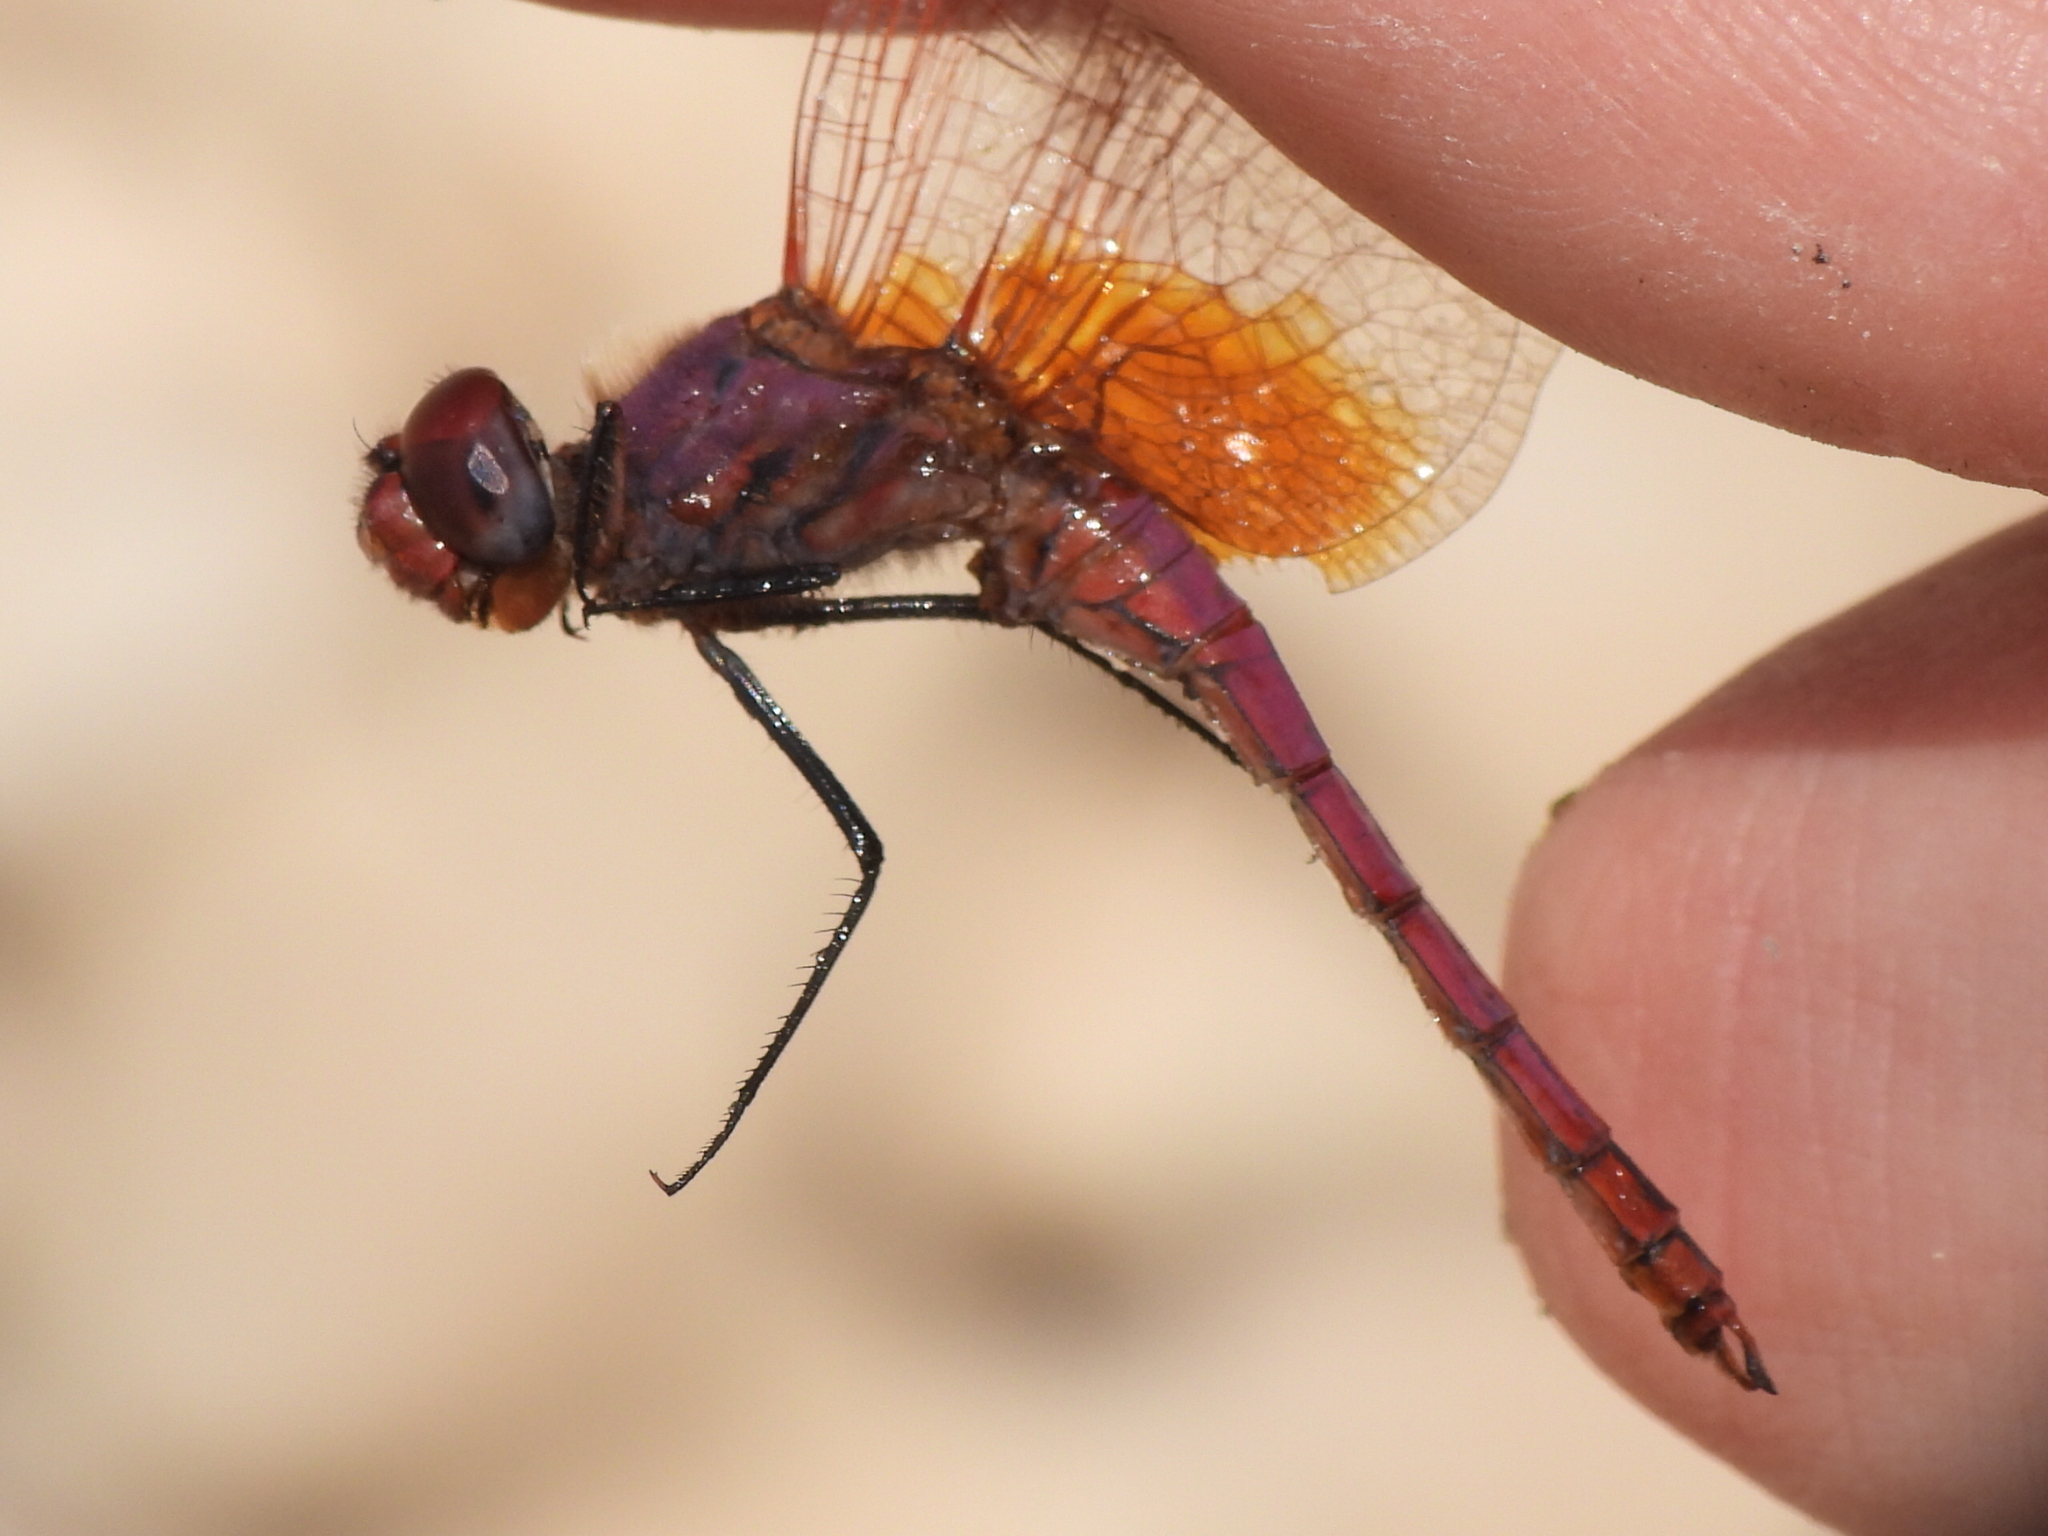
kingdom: Animalia
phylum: Arthropoda
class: Insecta
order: Odonata
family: Libellulidae
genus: Trithemis
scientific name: Trithemis annulata
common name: Violet dropwing
